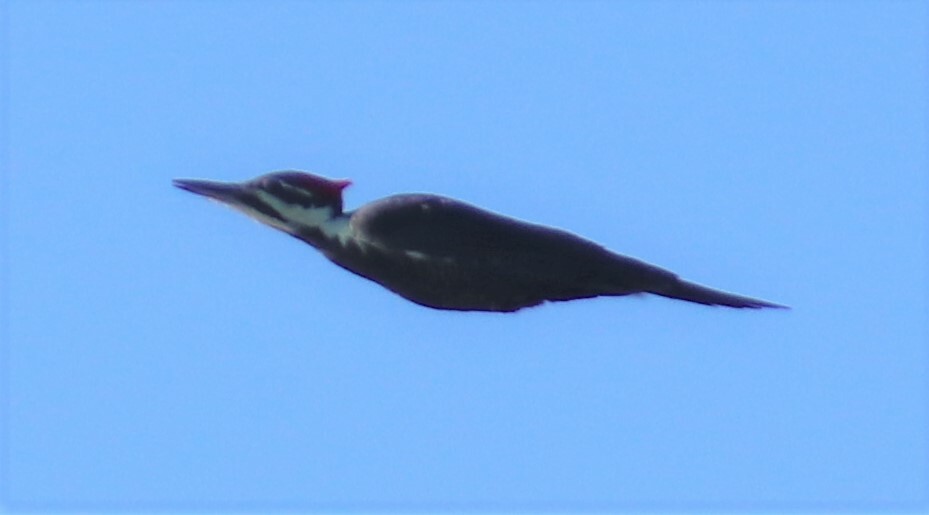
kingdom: Animalia
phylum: Chordata
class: Aves
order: Piciformes
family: Picidae
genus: Dryocopus
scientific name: Dryocopus pileatus
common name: Pileated woodpecker
